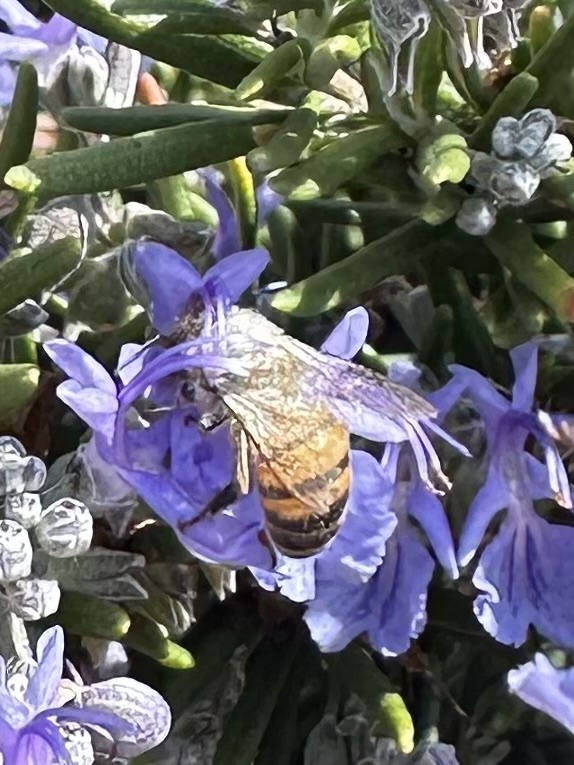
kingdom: Animalia
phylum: Arthropoda
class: Insecta
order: Hymenoptera
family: Apidae
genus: Apis
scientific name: Apis mellifera
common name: Honey bee
